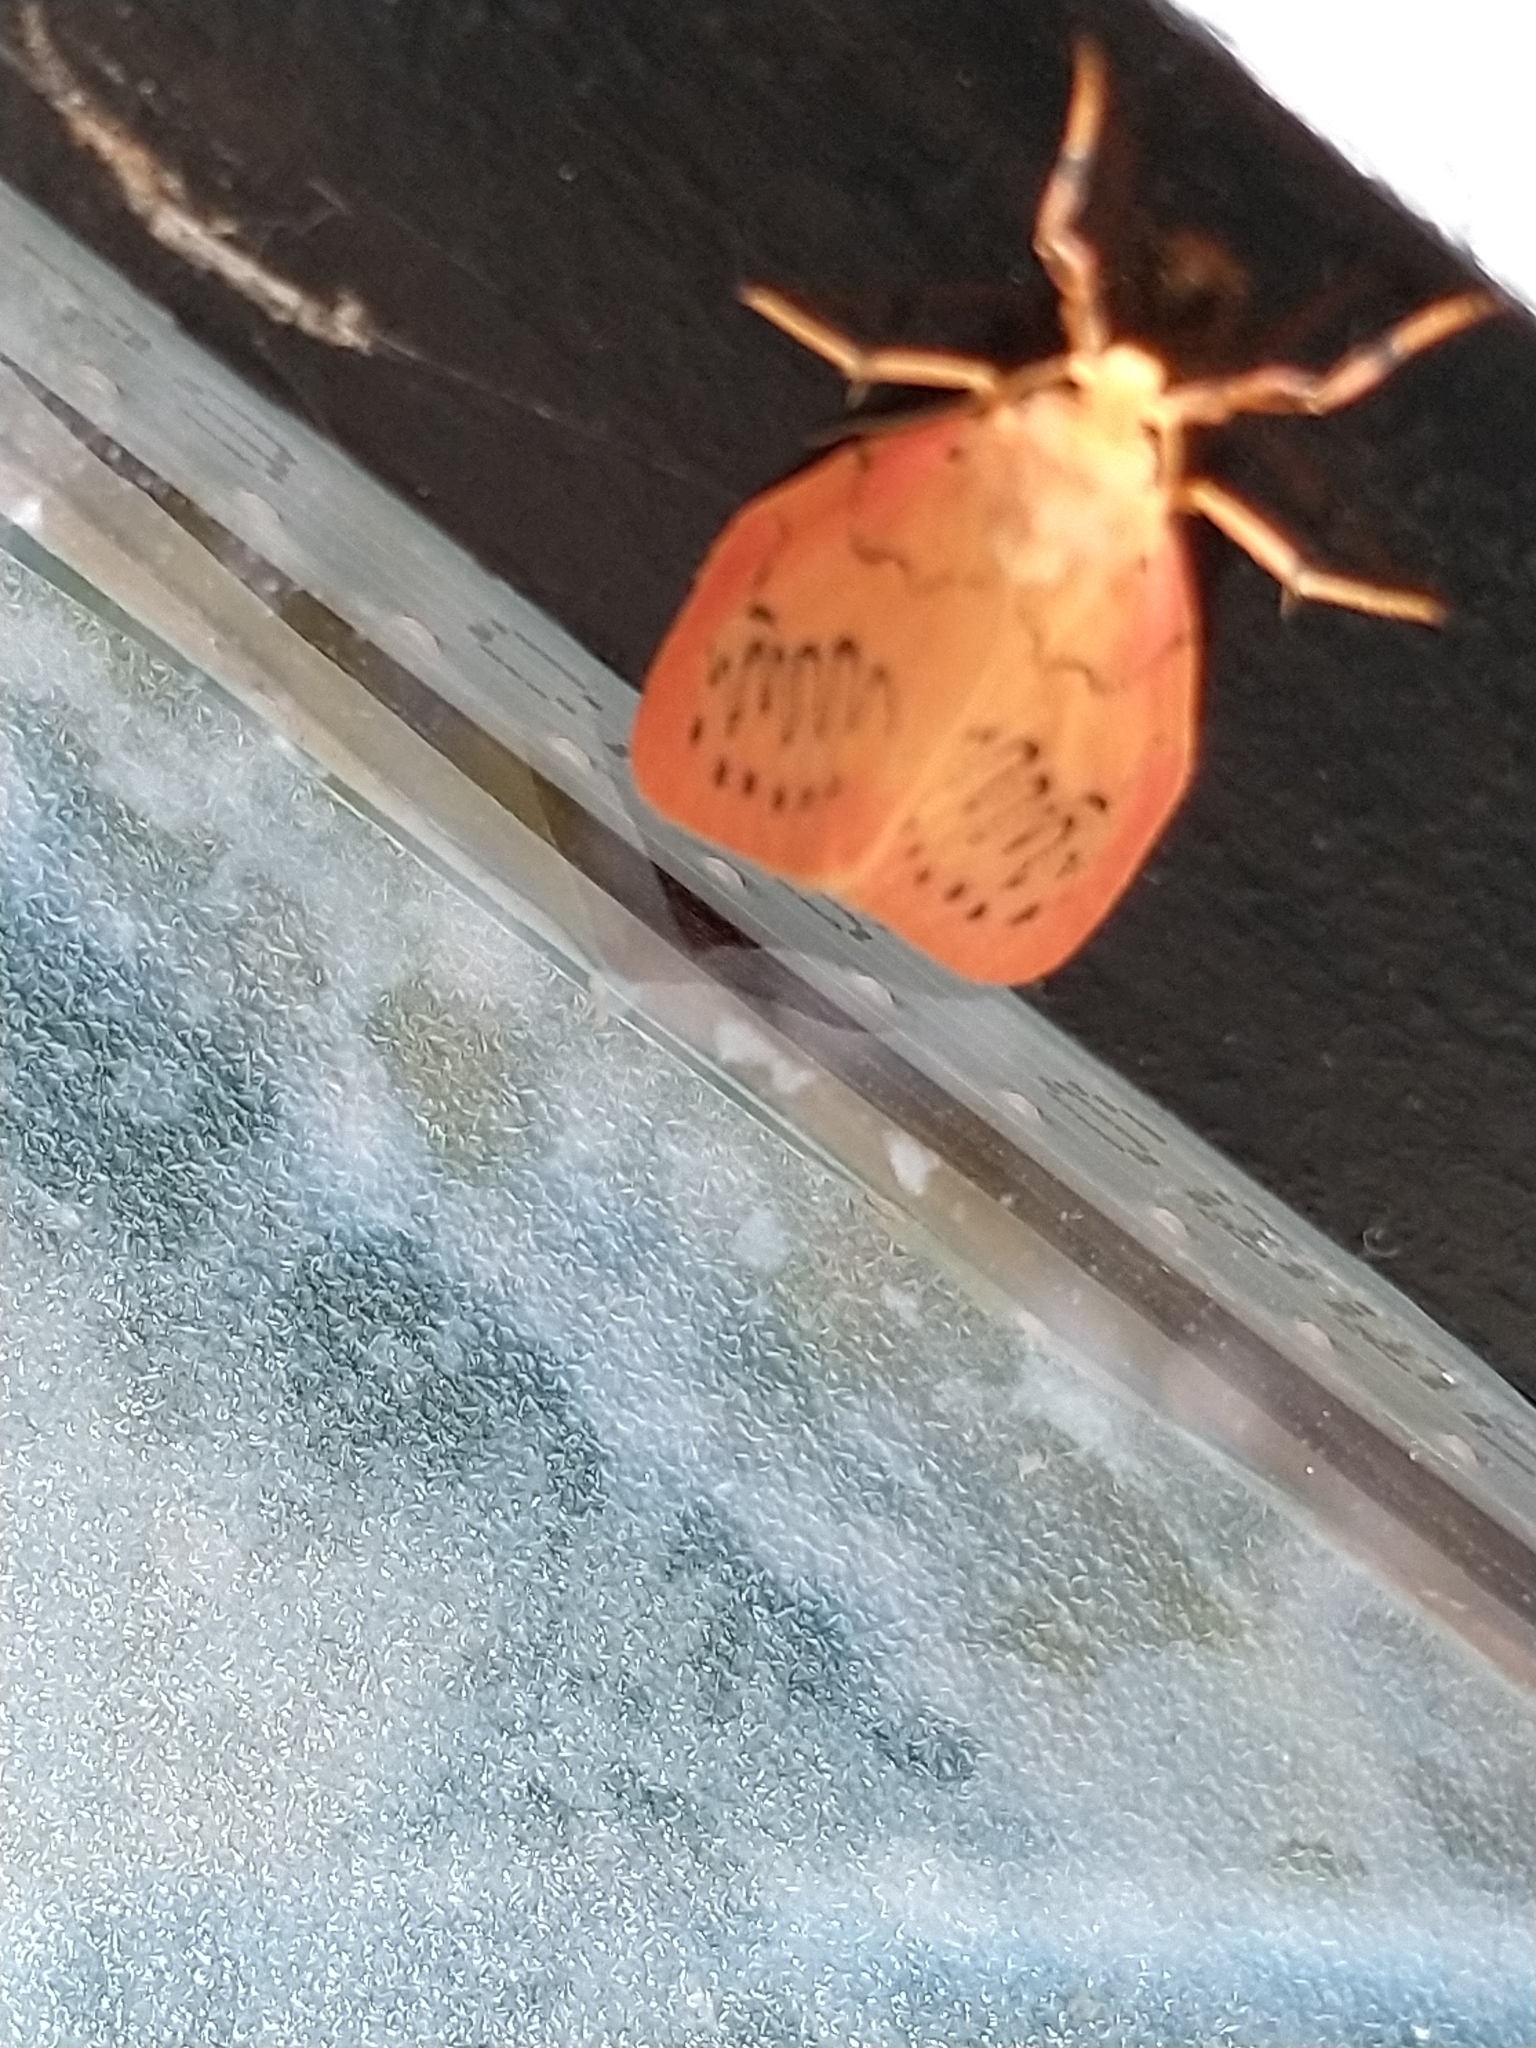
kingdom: Animalia
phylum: Arthropoda
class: Insecta
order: Lepidoptera
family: Erebidae
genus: Miltochrista
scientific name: Miltochrista miniata
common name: Rosy footman
